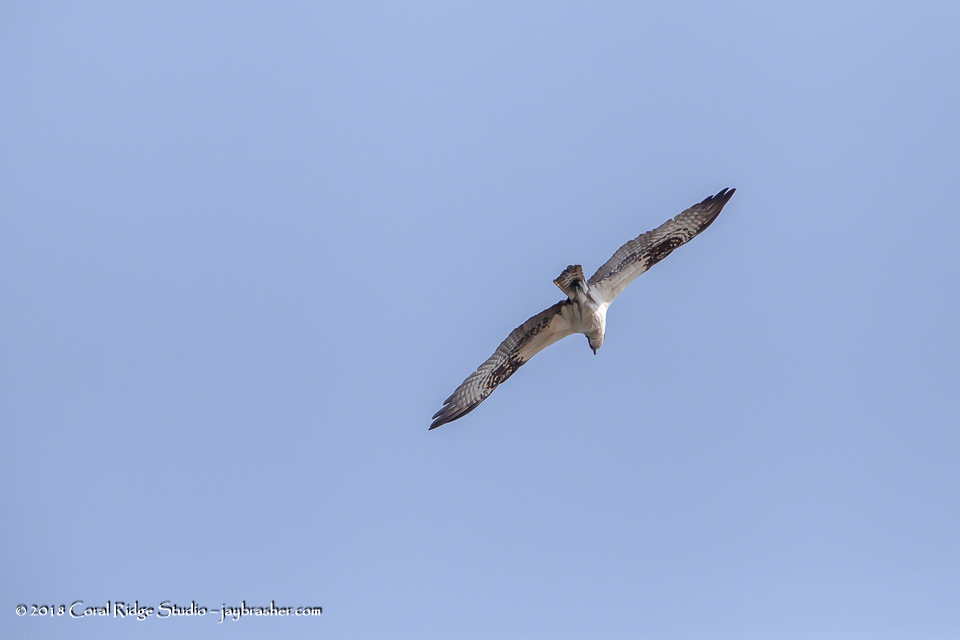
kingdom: Animalia
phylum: Chordata
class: Aves
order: Accipitriformes
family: Pandionidae
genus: Pandion
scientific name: Pandion haliaetus
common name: Osprey
